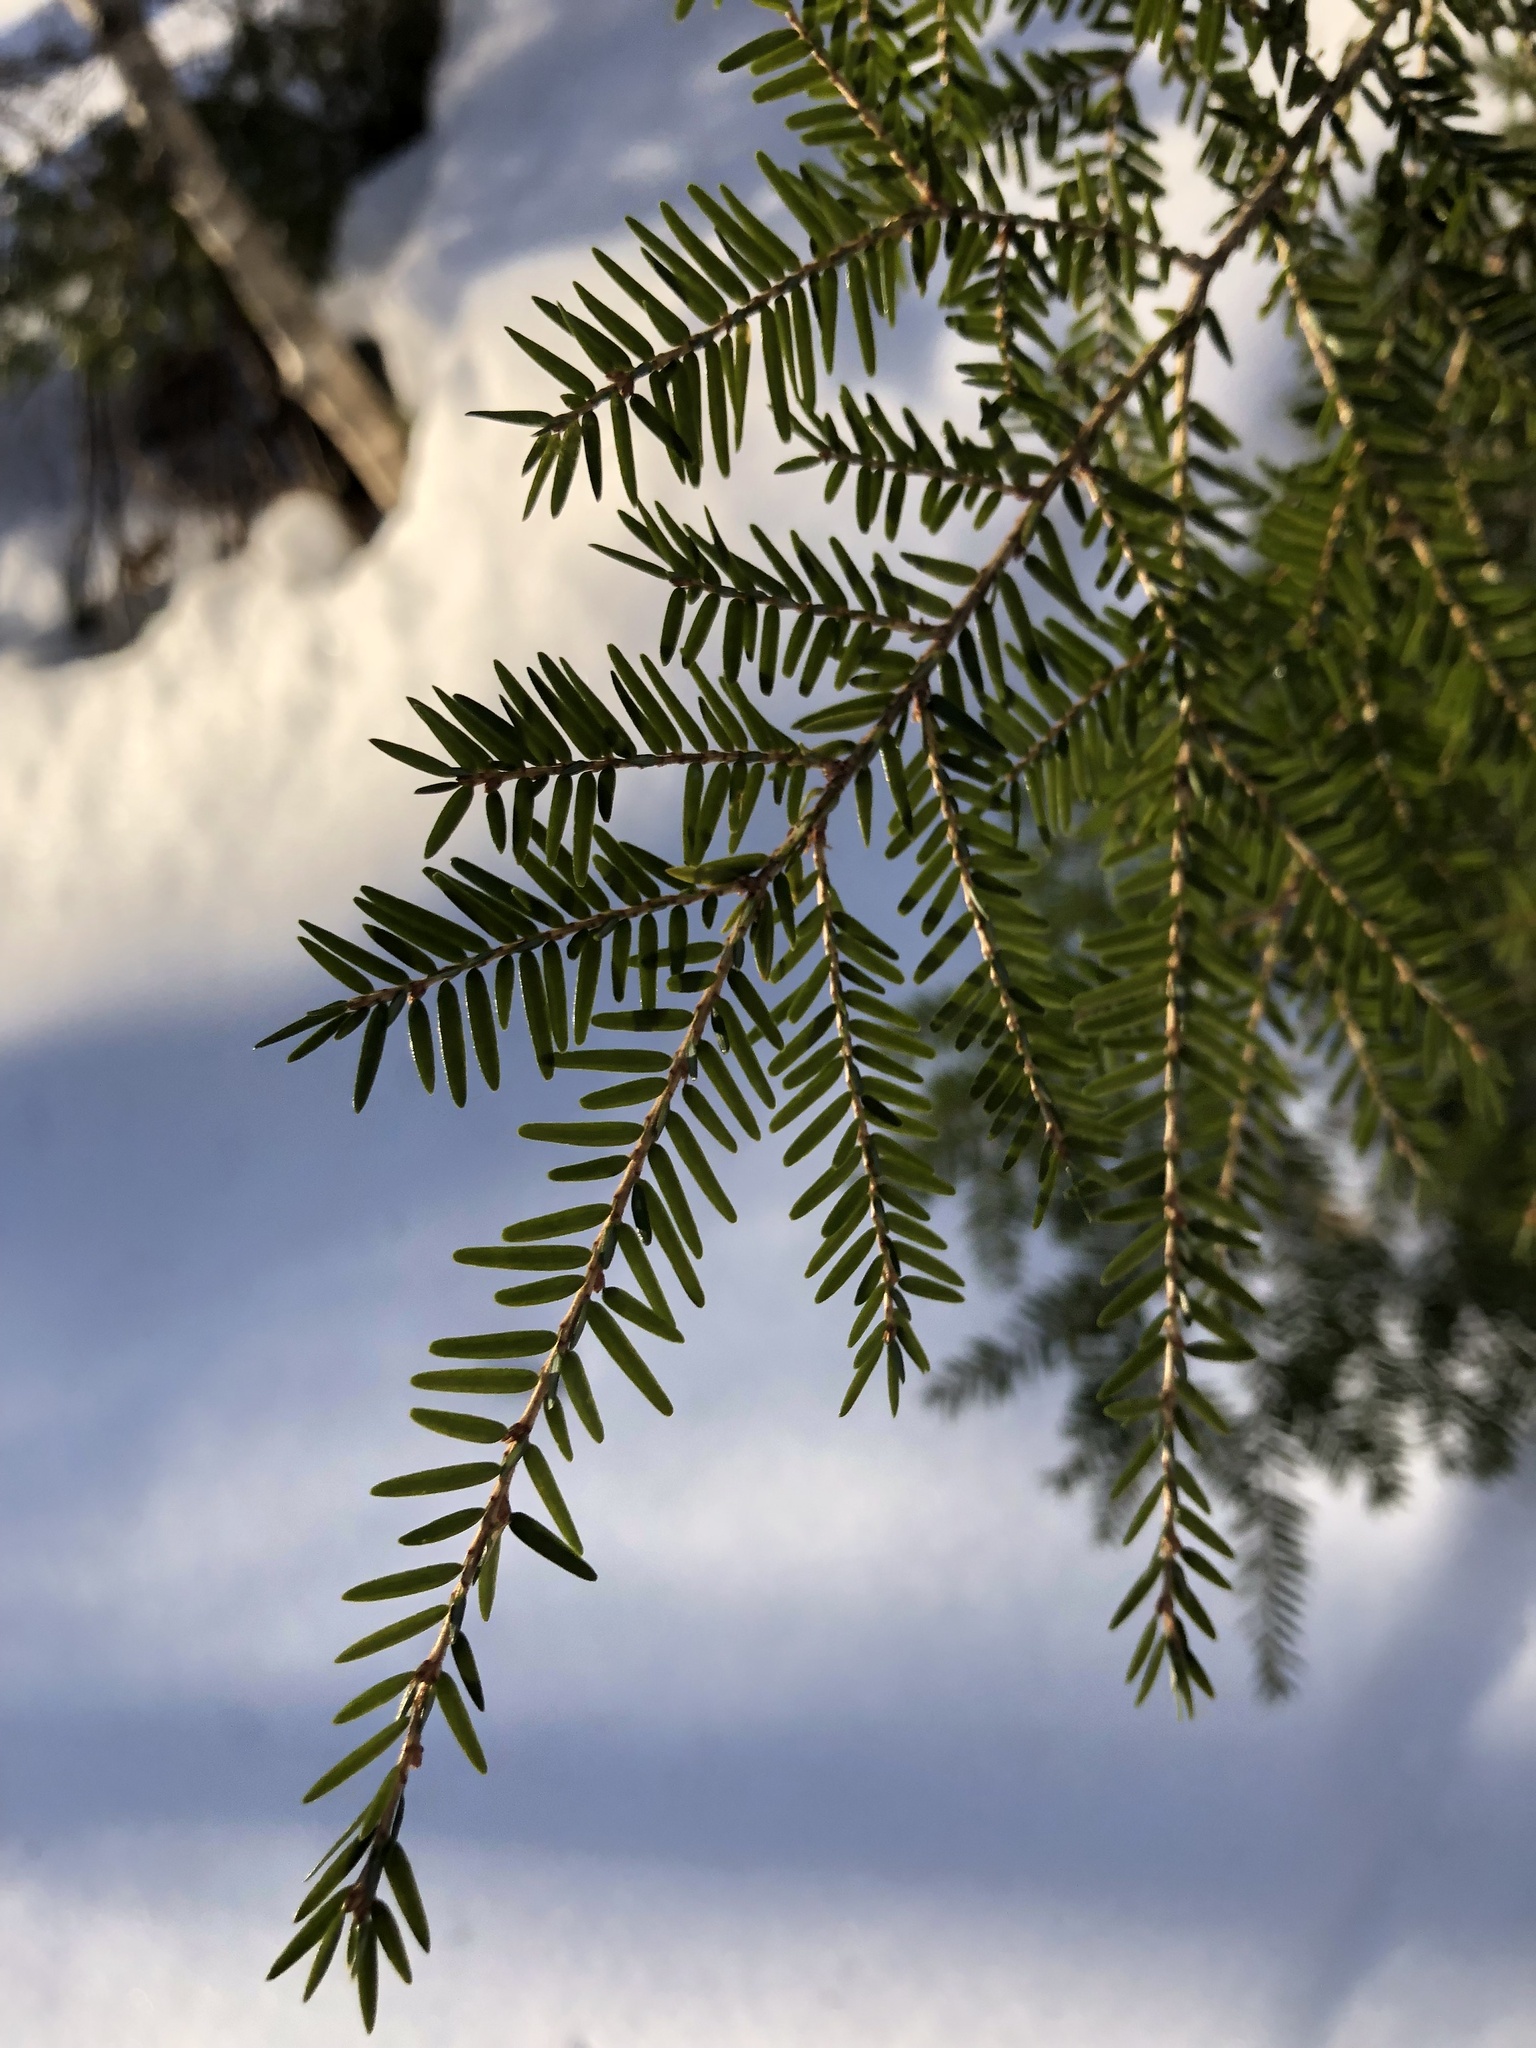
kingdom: Plantae
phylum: Tracheophyta
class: Pinopsida
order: Pinales
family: Pinaceae
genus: Tsuga
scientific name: Tsuga canadensis
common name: Eastern hemlock
